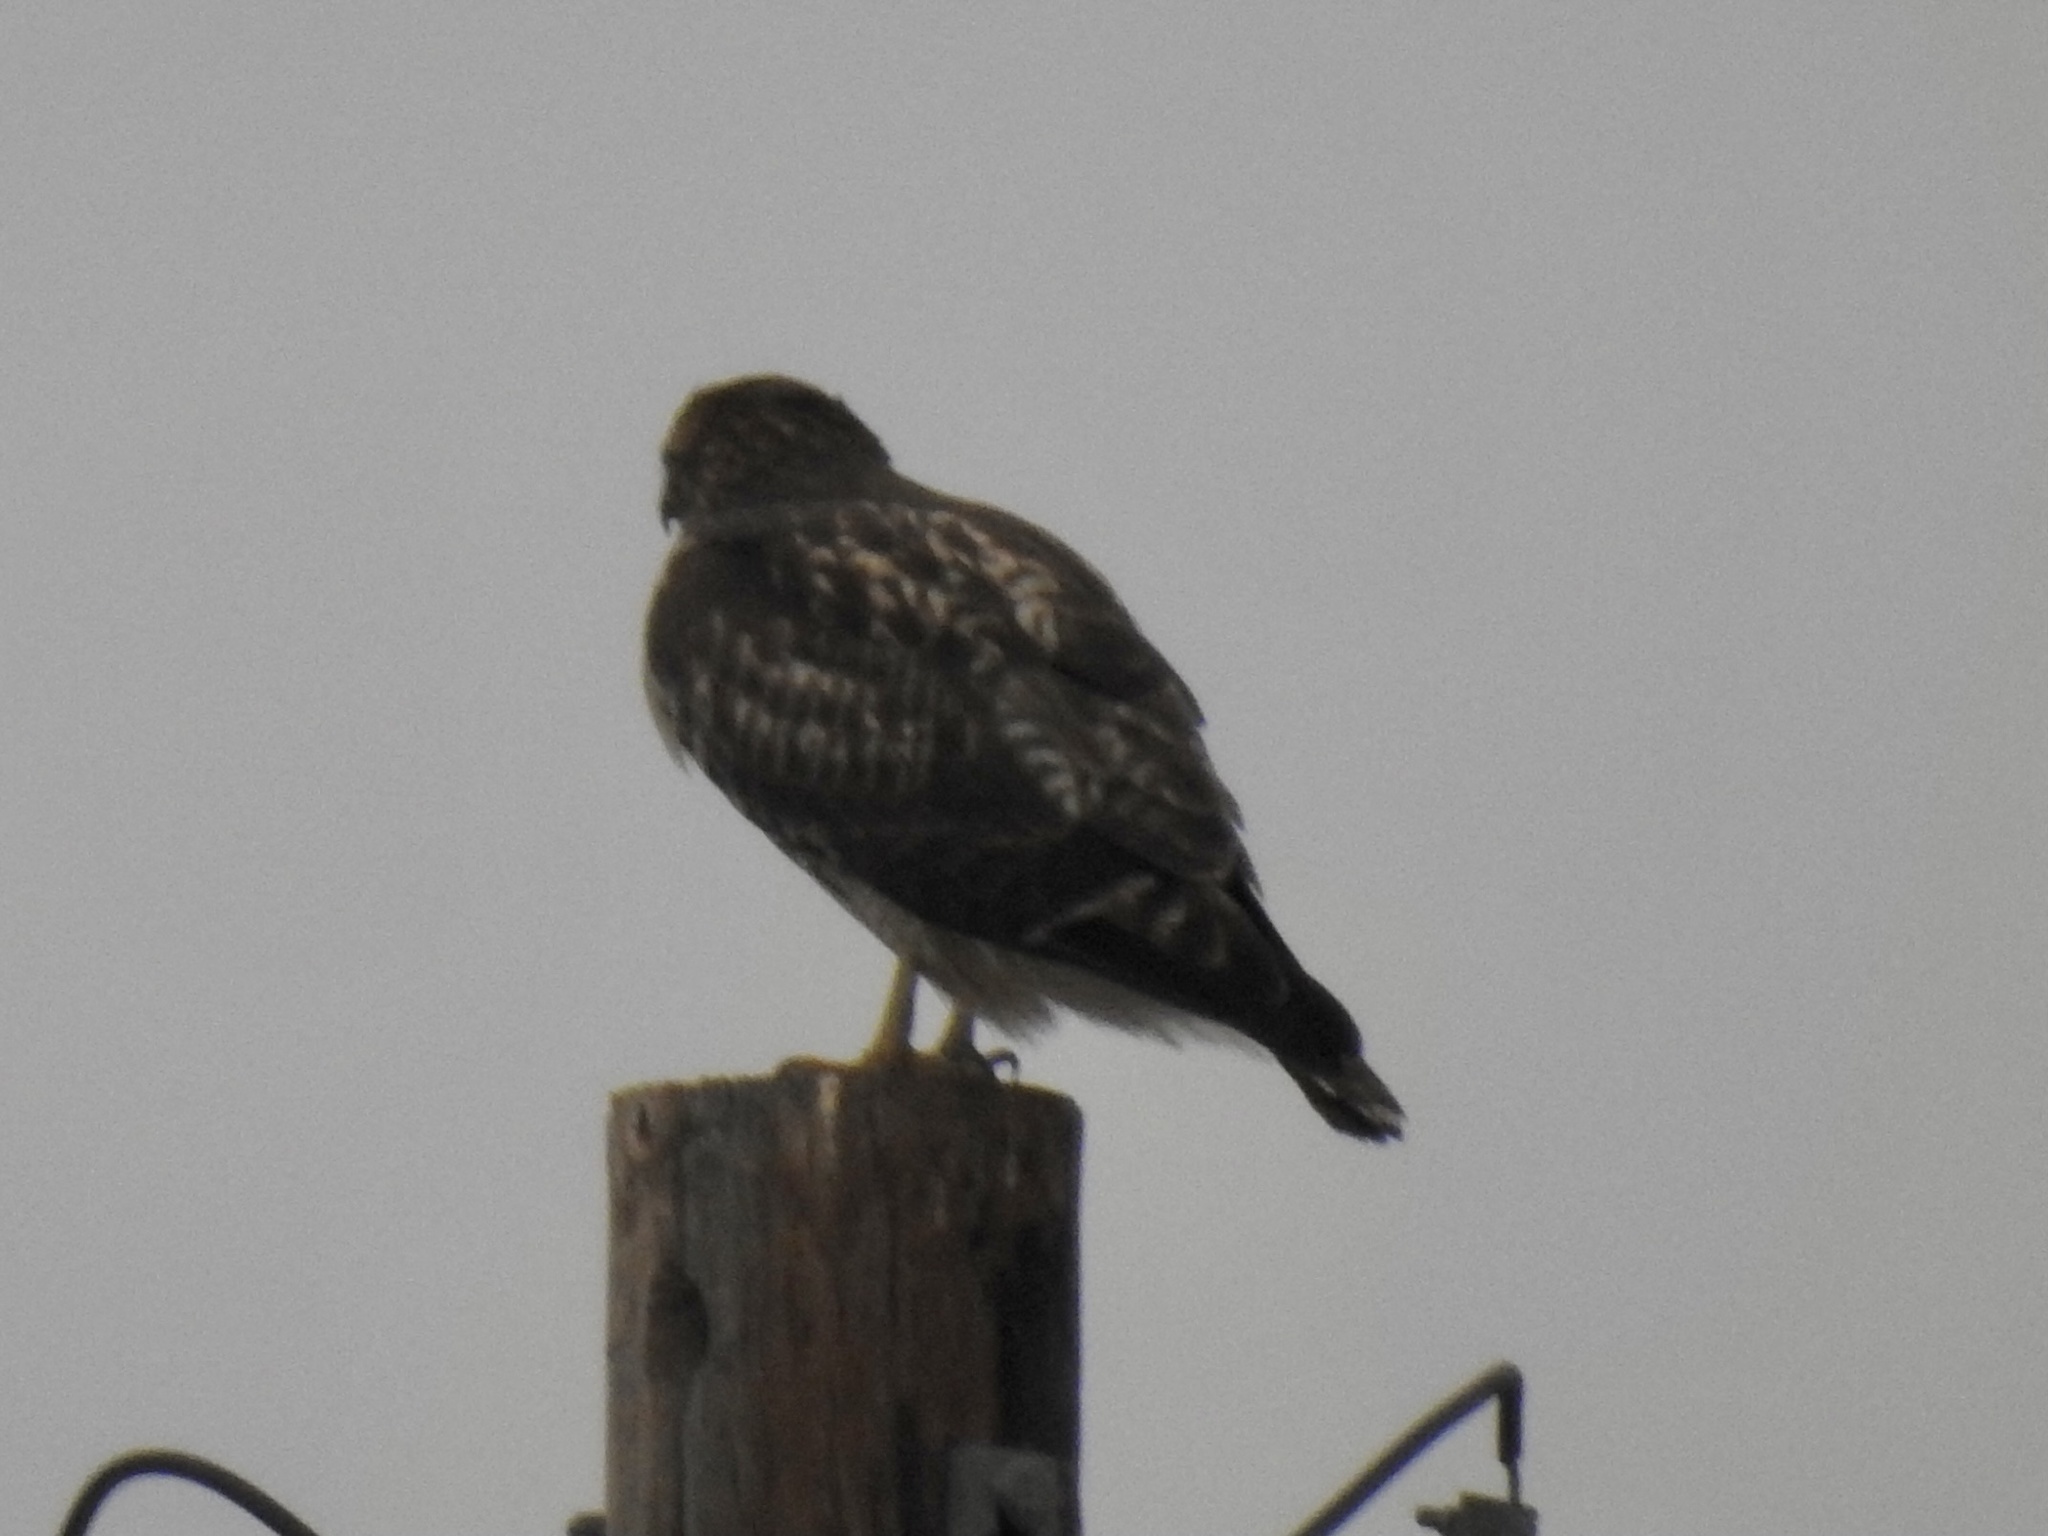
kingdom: Animalia
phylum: Chordata
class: Aves
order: Accipitriformes
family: Accipitridae
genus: Buteo
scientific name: Buteo jamaicensis
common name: Red-tailed hawk
